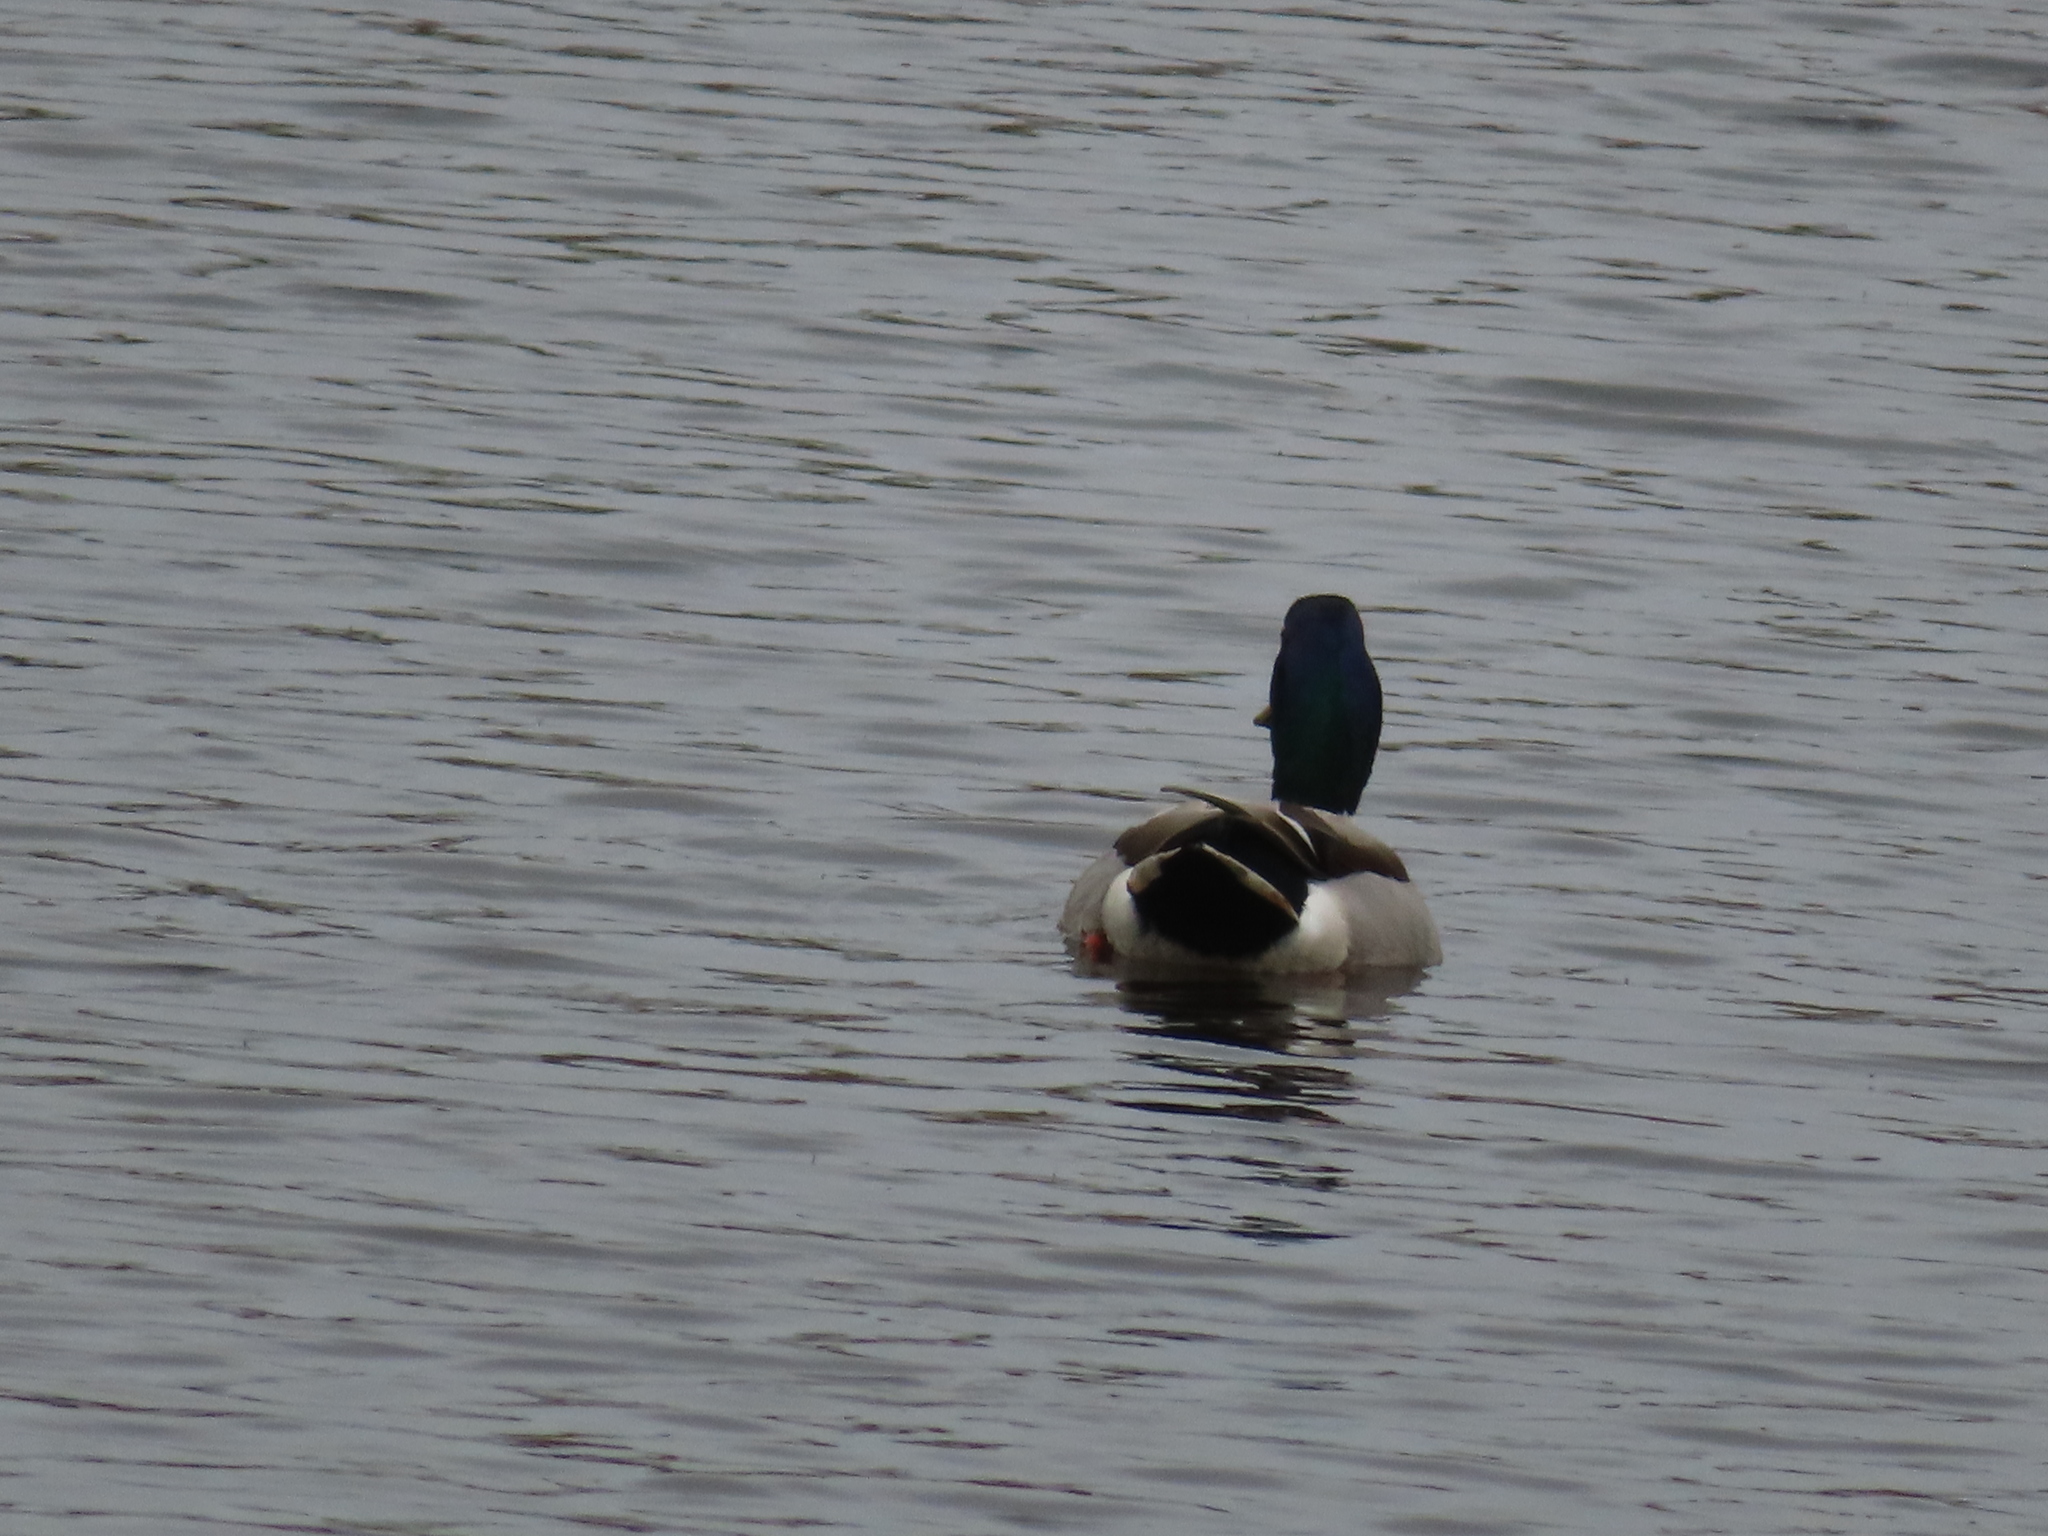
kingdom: Animalia
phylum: Chordata
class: Aves
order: Anseriformes
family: Anatidae
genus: Anas
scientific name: Anas platyrhynchos
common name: Mallard
